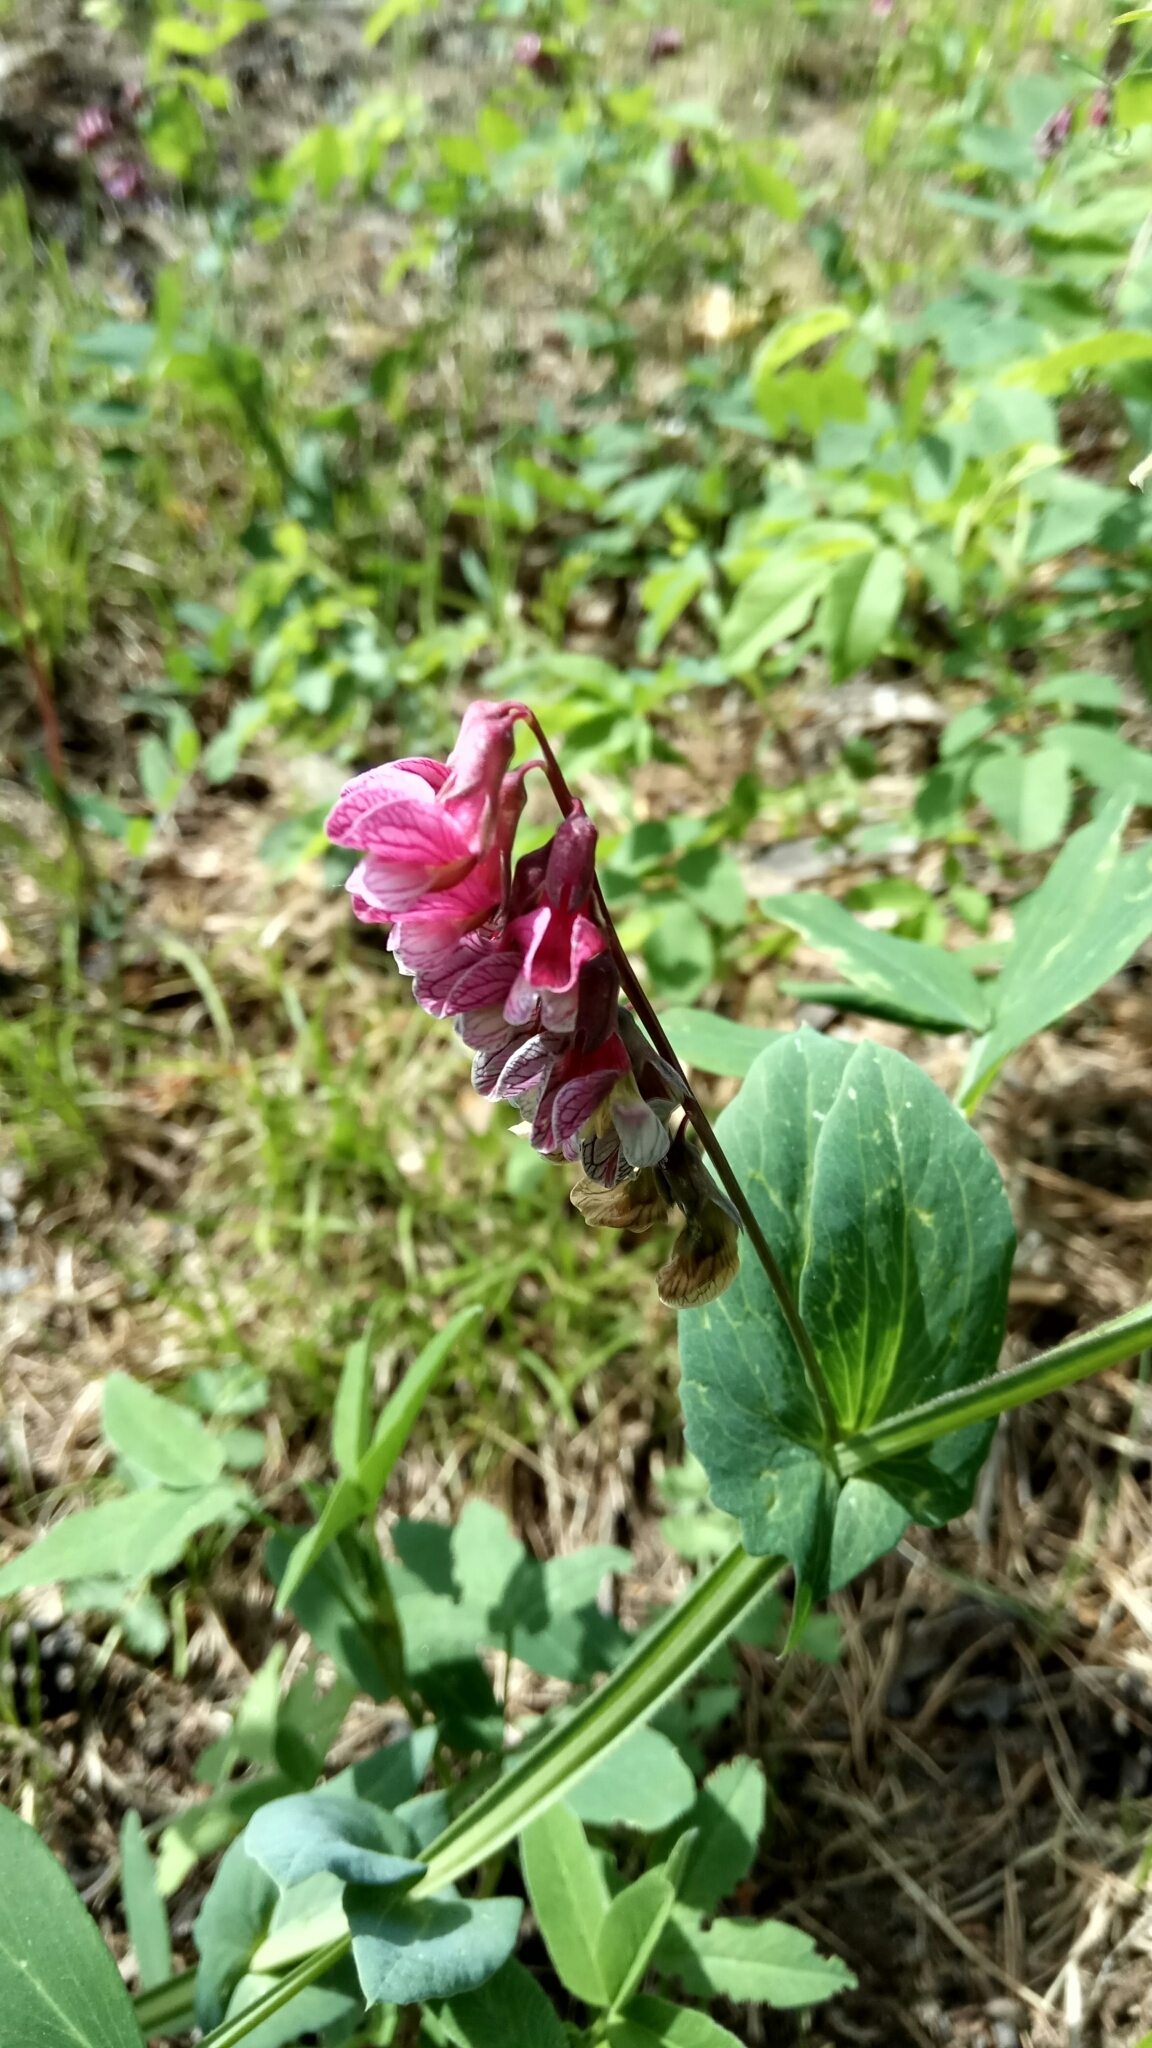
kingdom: Plantae
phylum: Tracheophyta
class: Magnoliopsida
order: Fabales
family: Fabaceae
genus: Lathyrus
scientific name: Lathyrus pisiformis
